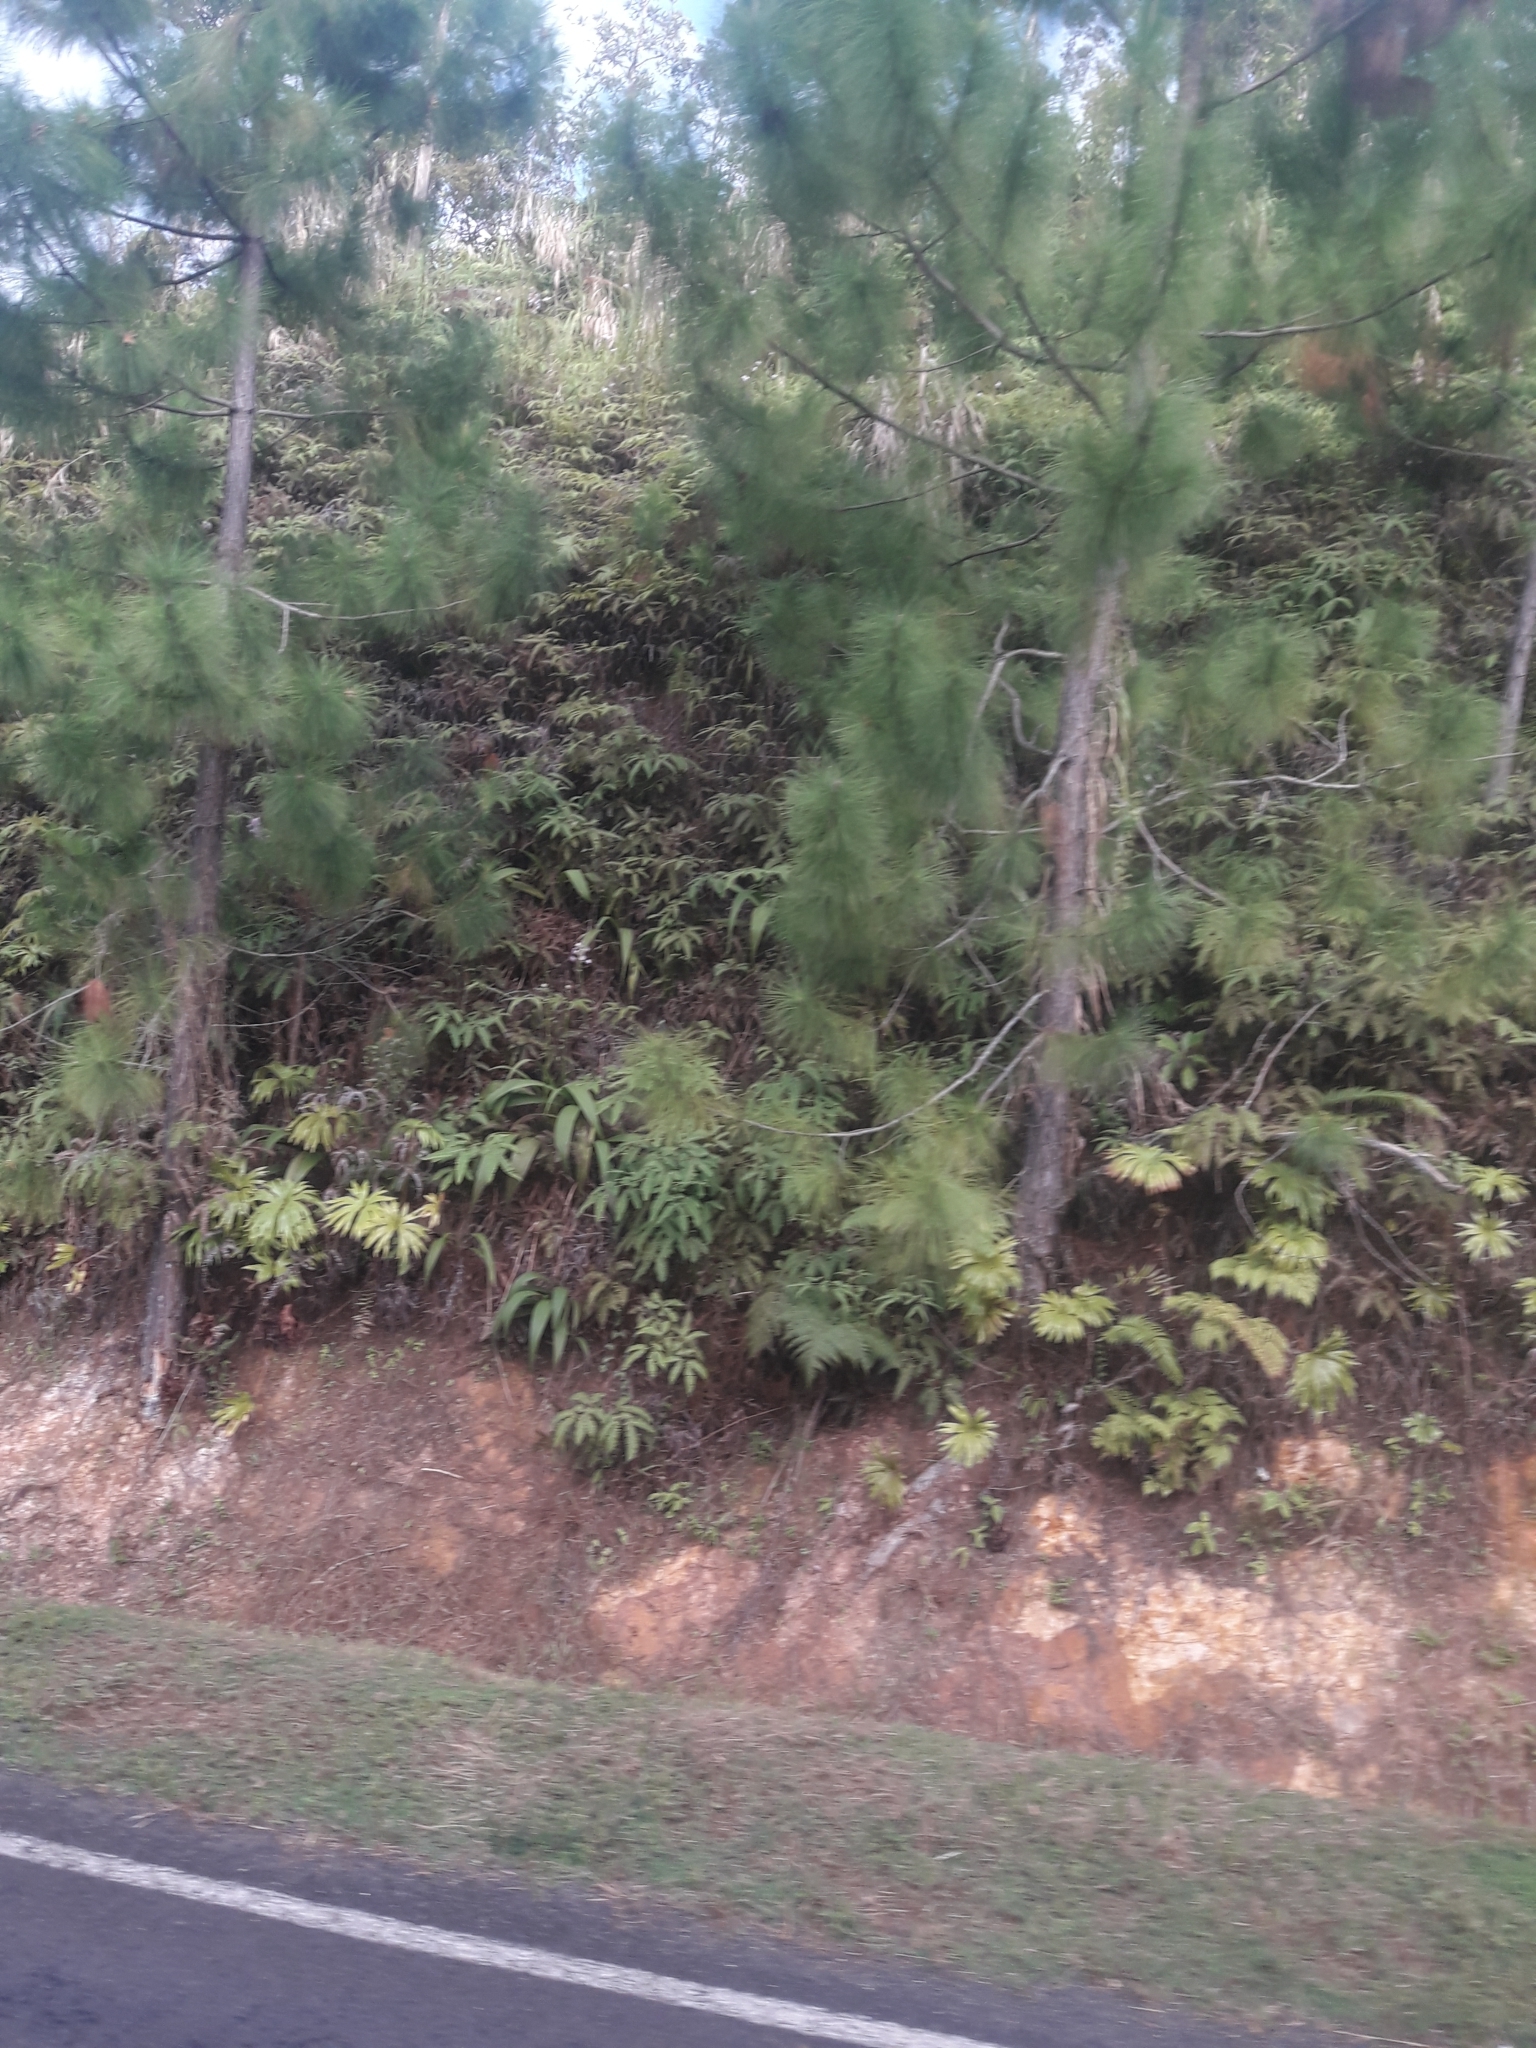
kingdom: Plantae
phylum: Tracheophyta
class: Polypodiopsida
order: Gleicheniales
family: Dipteridaceae
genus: Dipteris
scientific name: Dipteris conjugata
